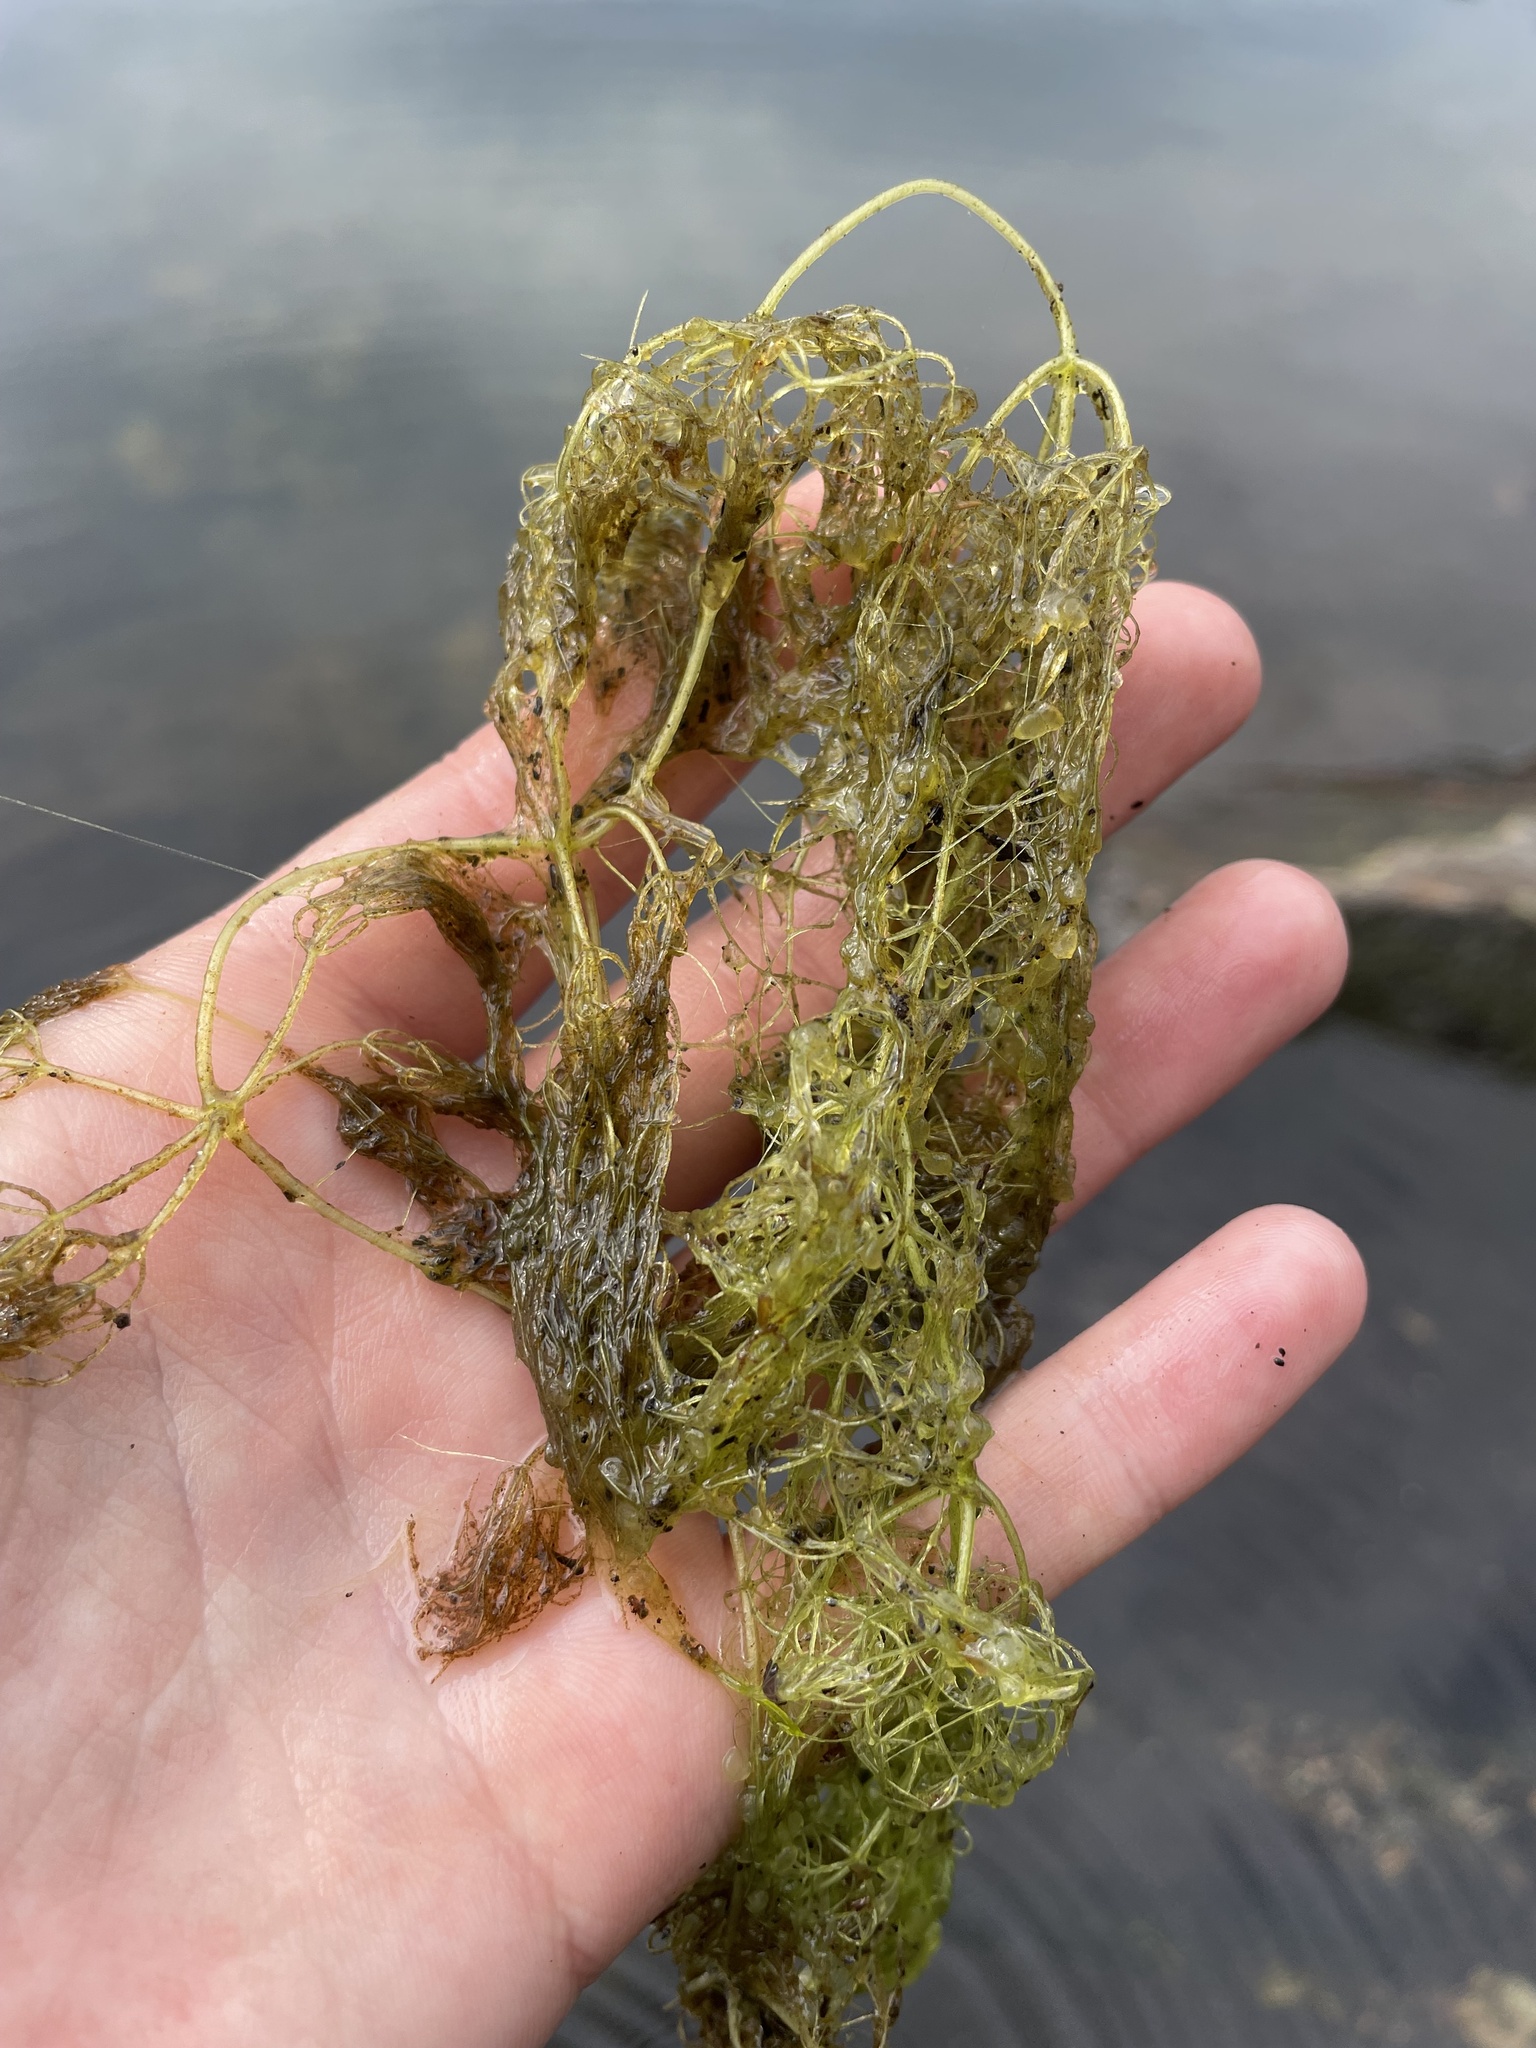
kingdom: Plantae
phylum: Tracheophyta
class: Magnoliopsida
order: Lamiales
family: Lentibulariaceae
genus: Utricularia
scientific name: Utricularia purpurea
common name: Eastern purple bladderwort
